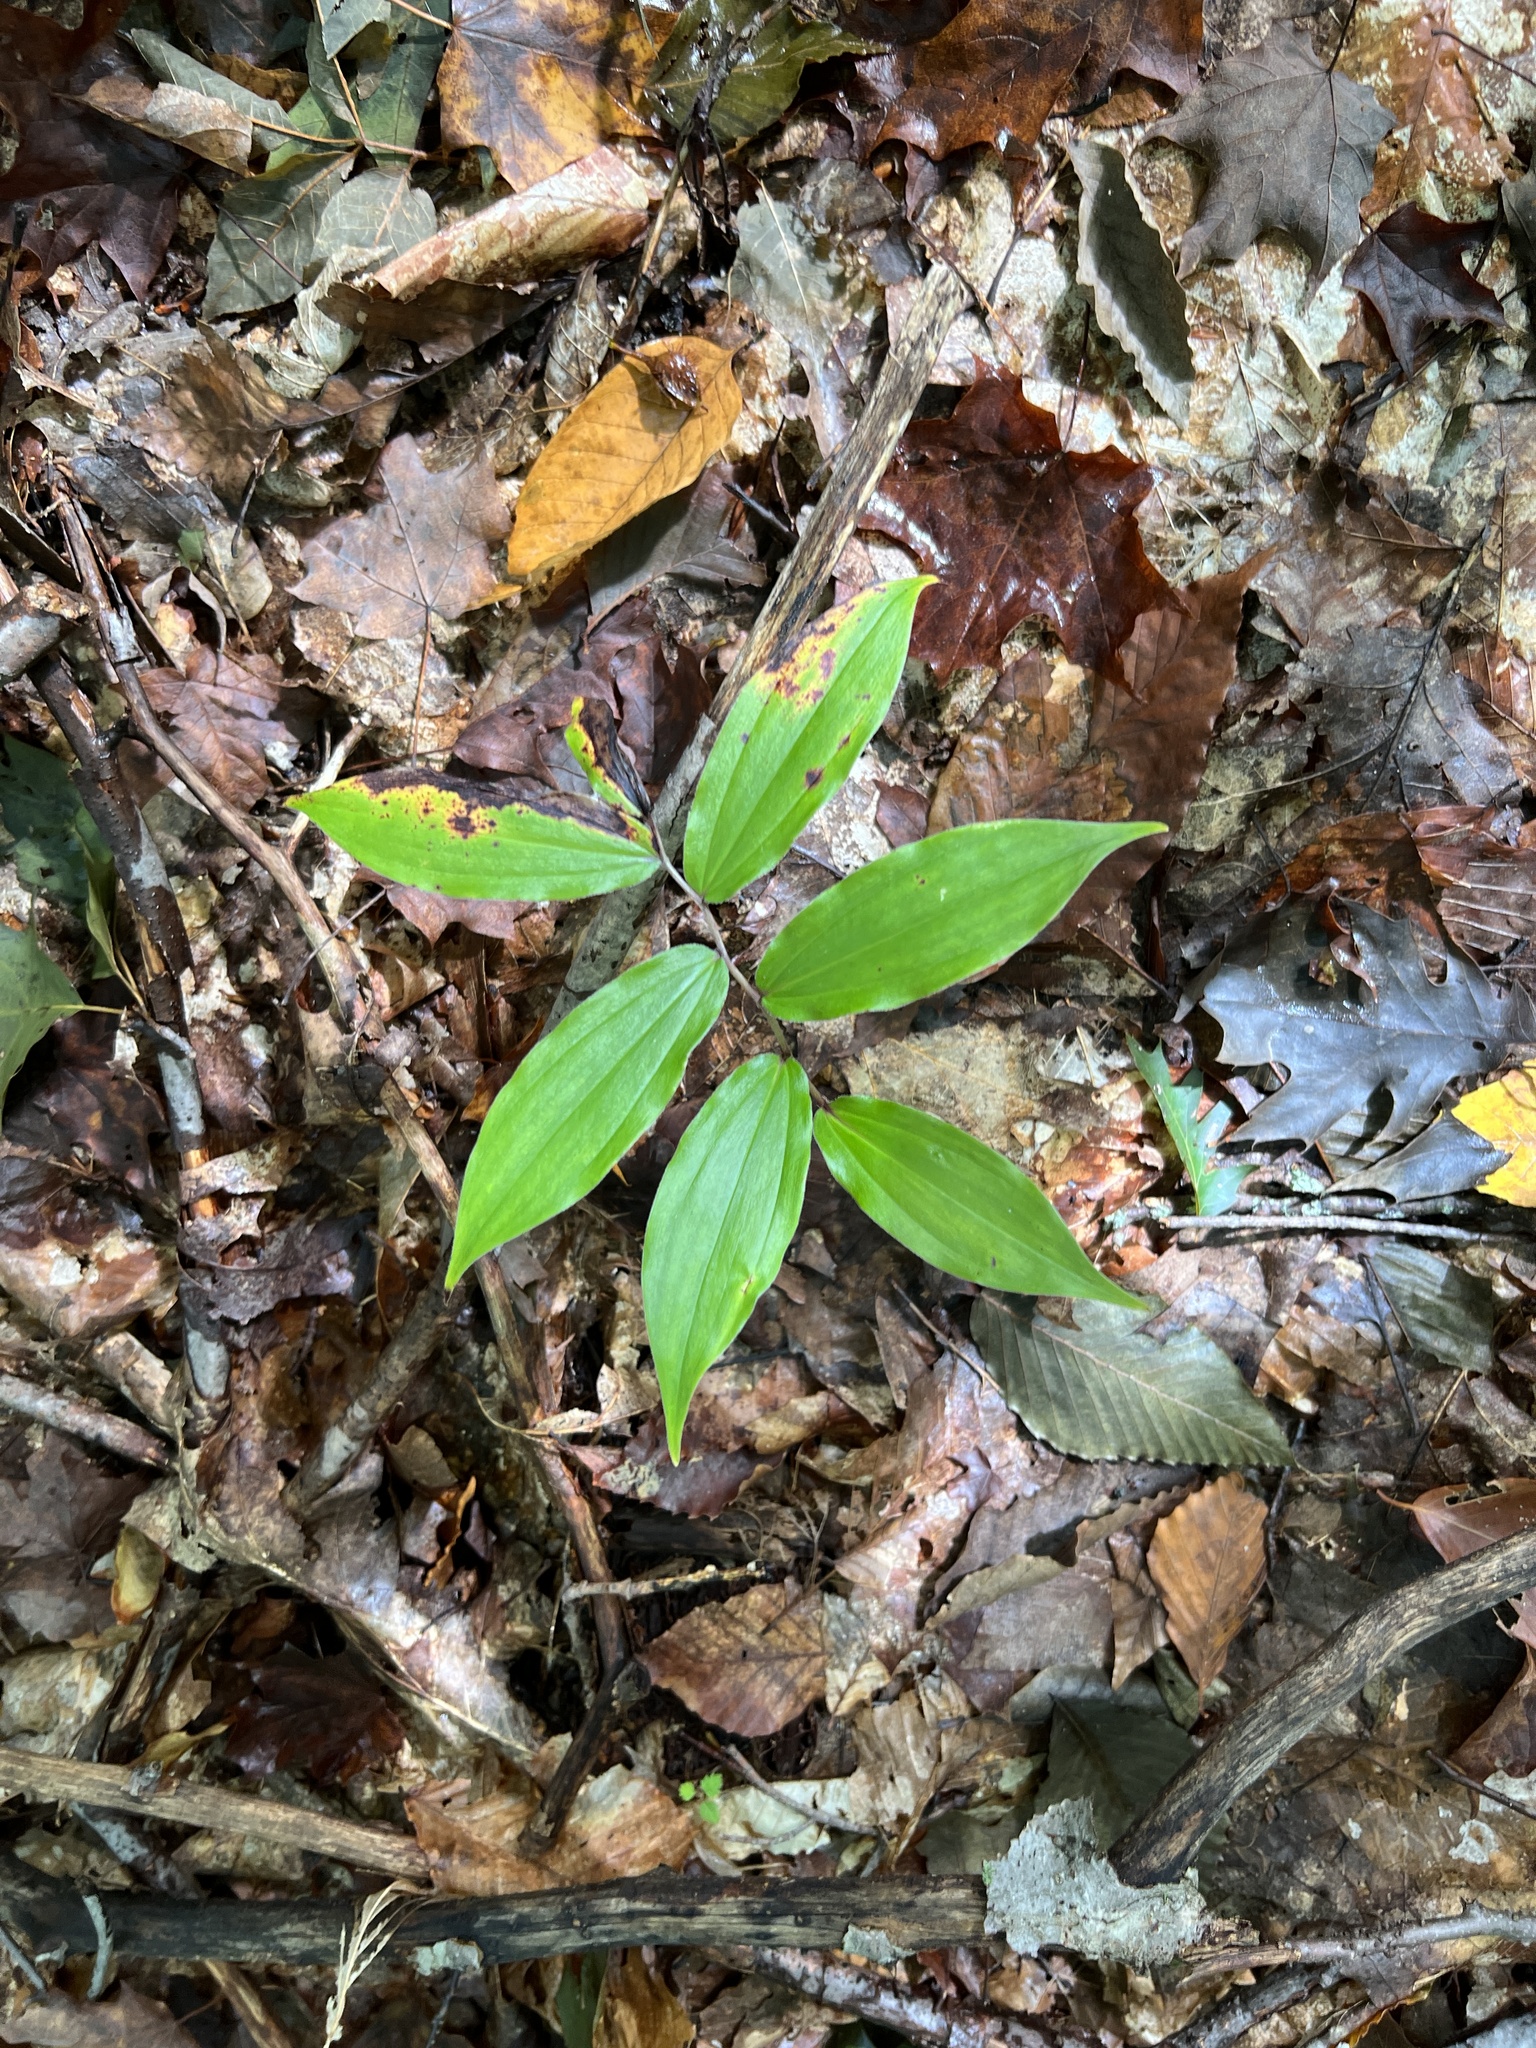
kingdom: Plantae
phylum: Tracheophyta
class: Liliopsida
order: Asparagales
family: Asparagaceae
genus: Maianthemum
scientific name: Maianthemum racemosum
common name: False spikenard
